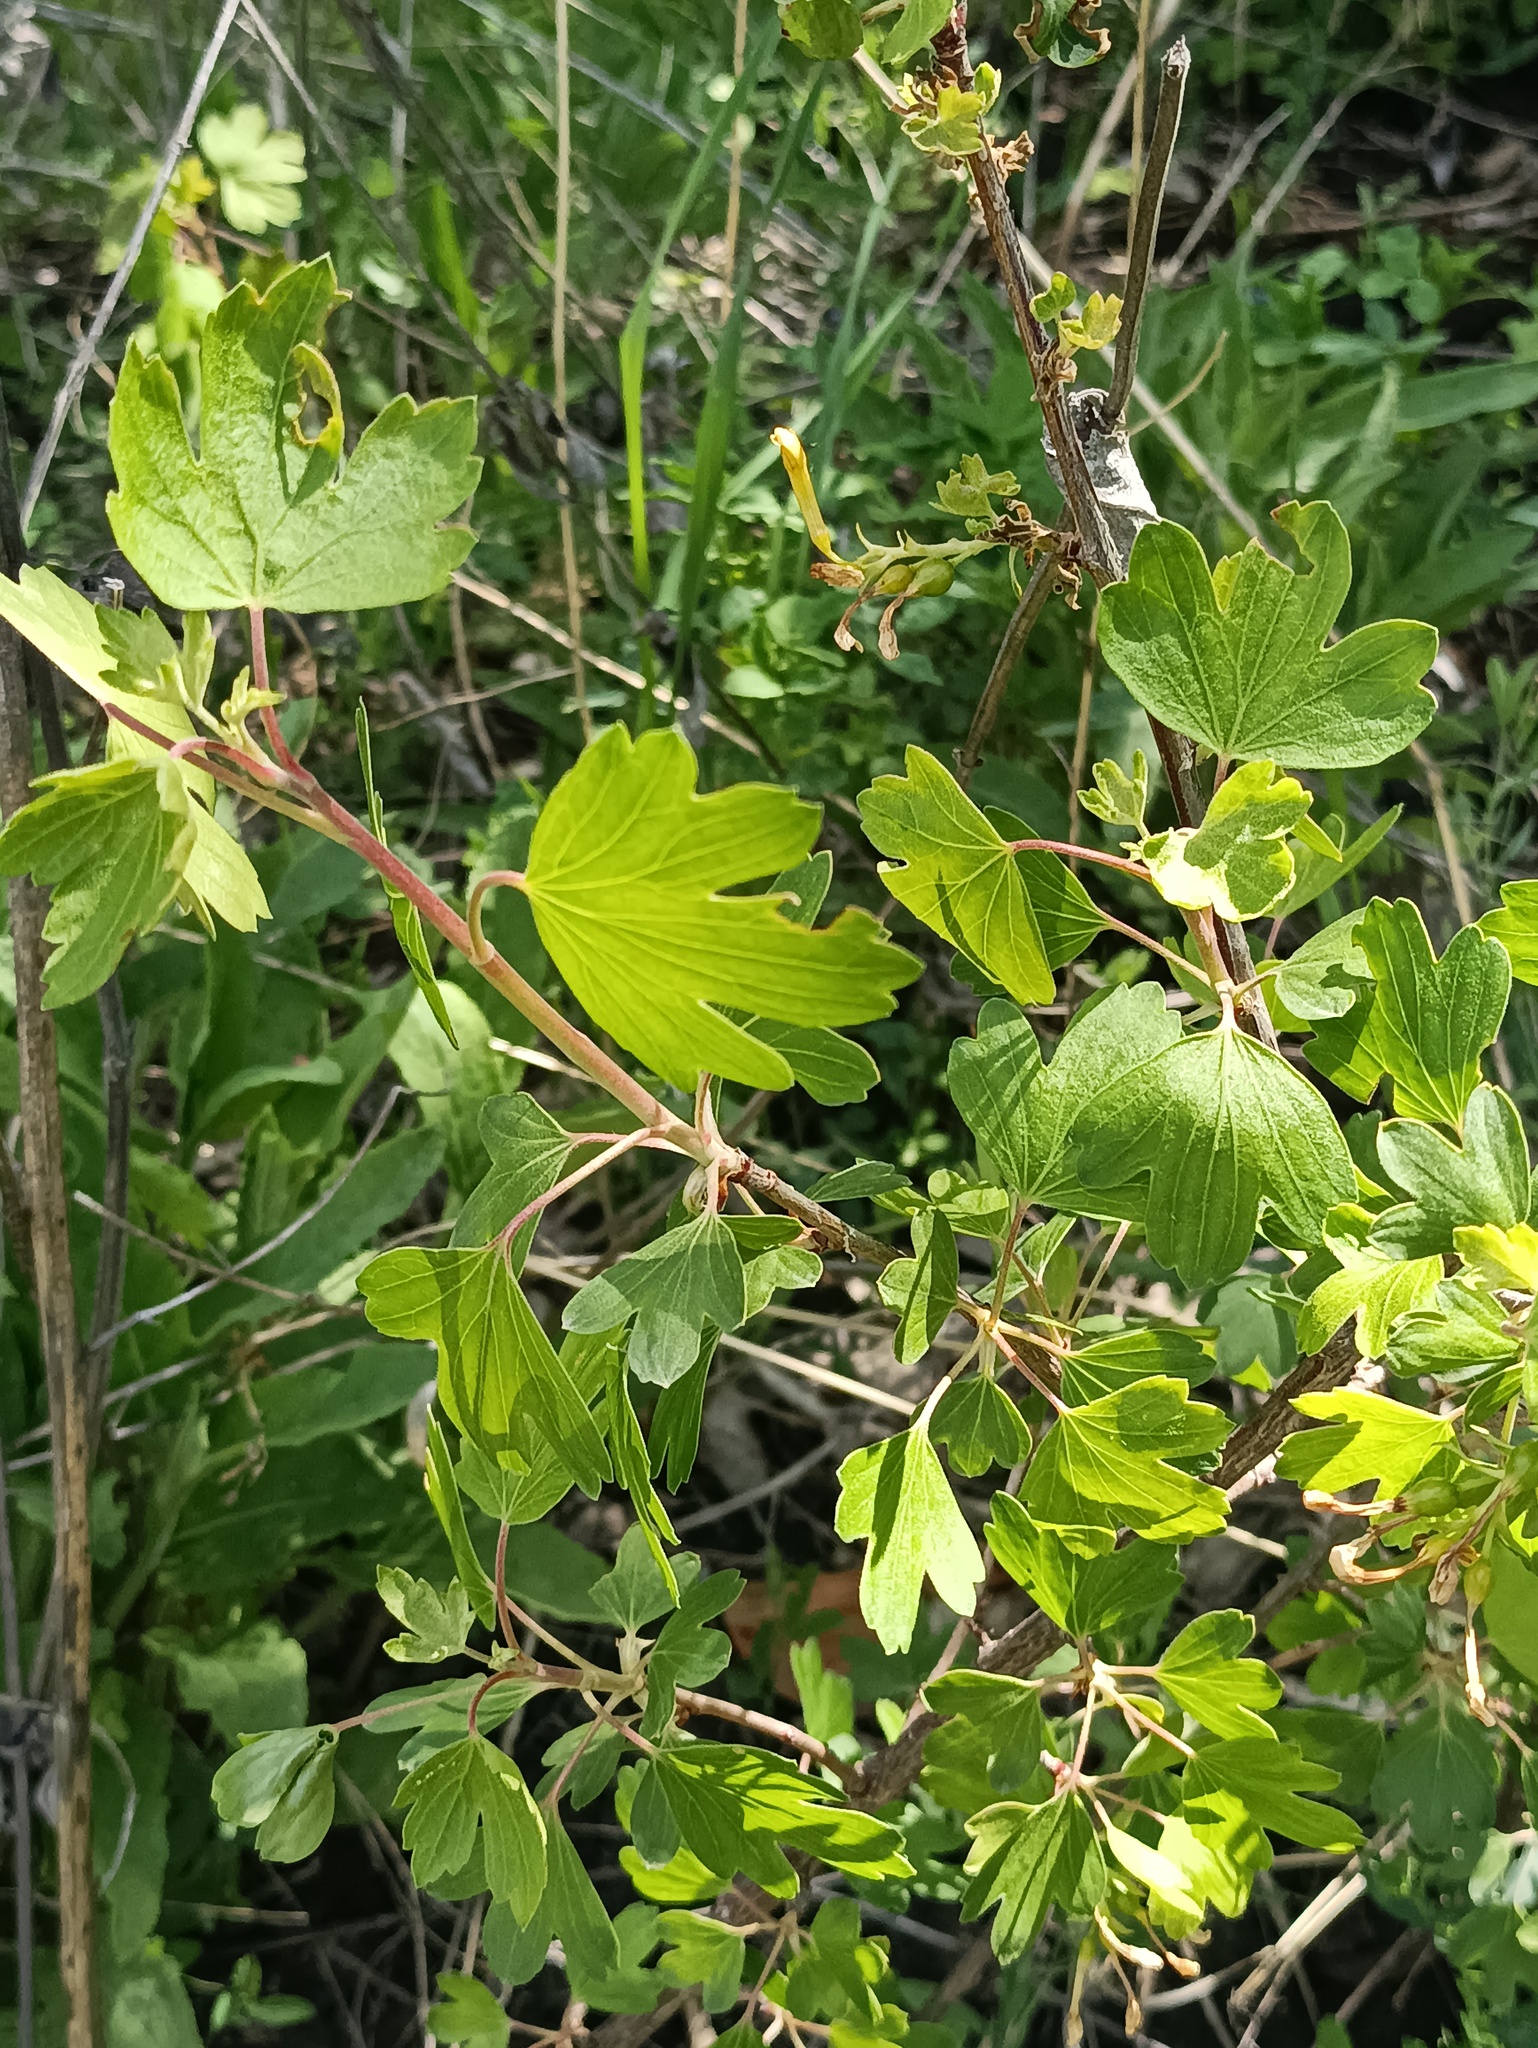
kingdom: Plantae
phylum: Tracheophyta
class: Magnoliopsida
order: Saxifragales
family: Grossulariaceae
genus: Ribes
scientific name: Ribes aureum
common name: Golden currant
